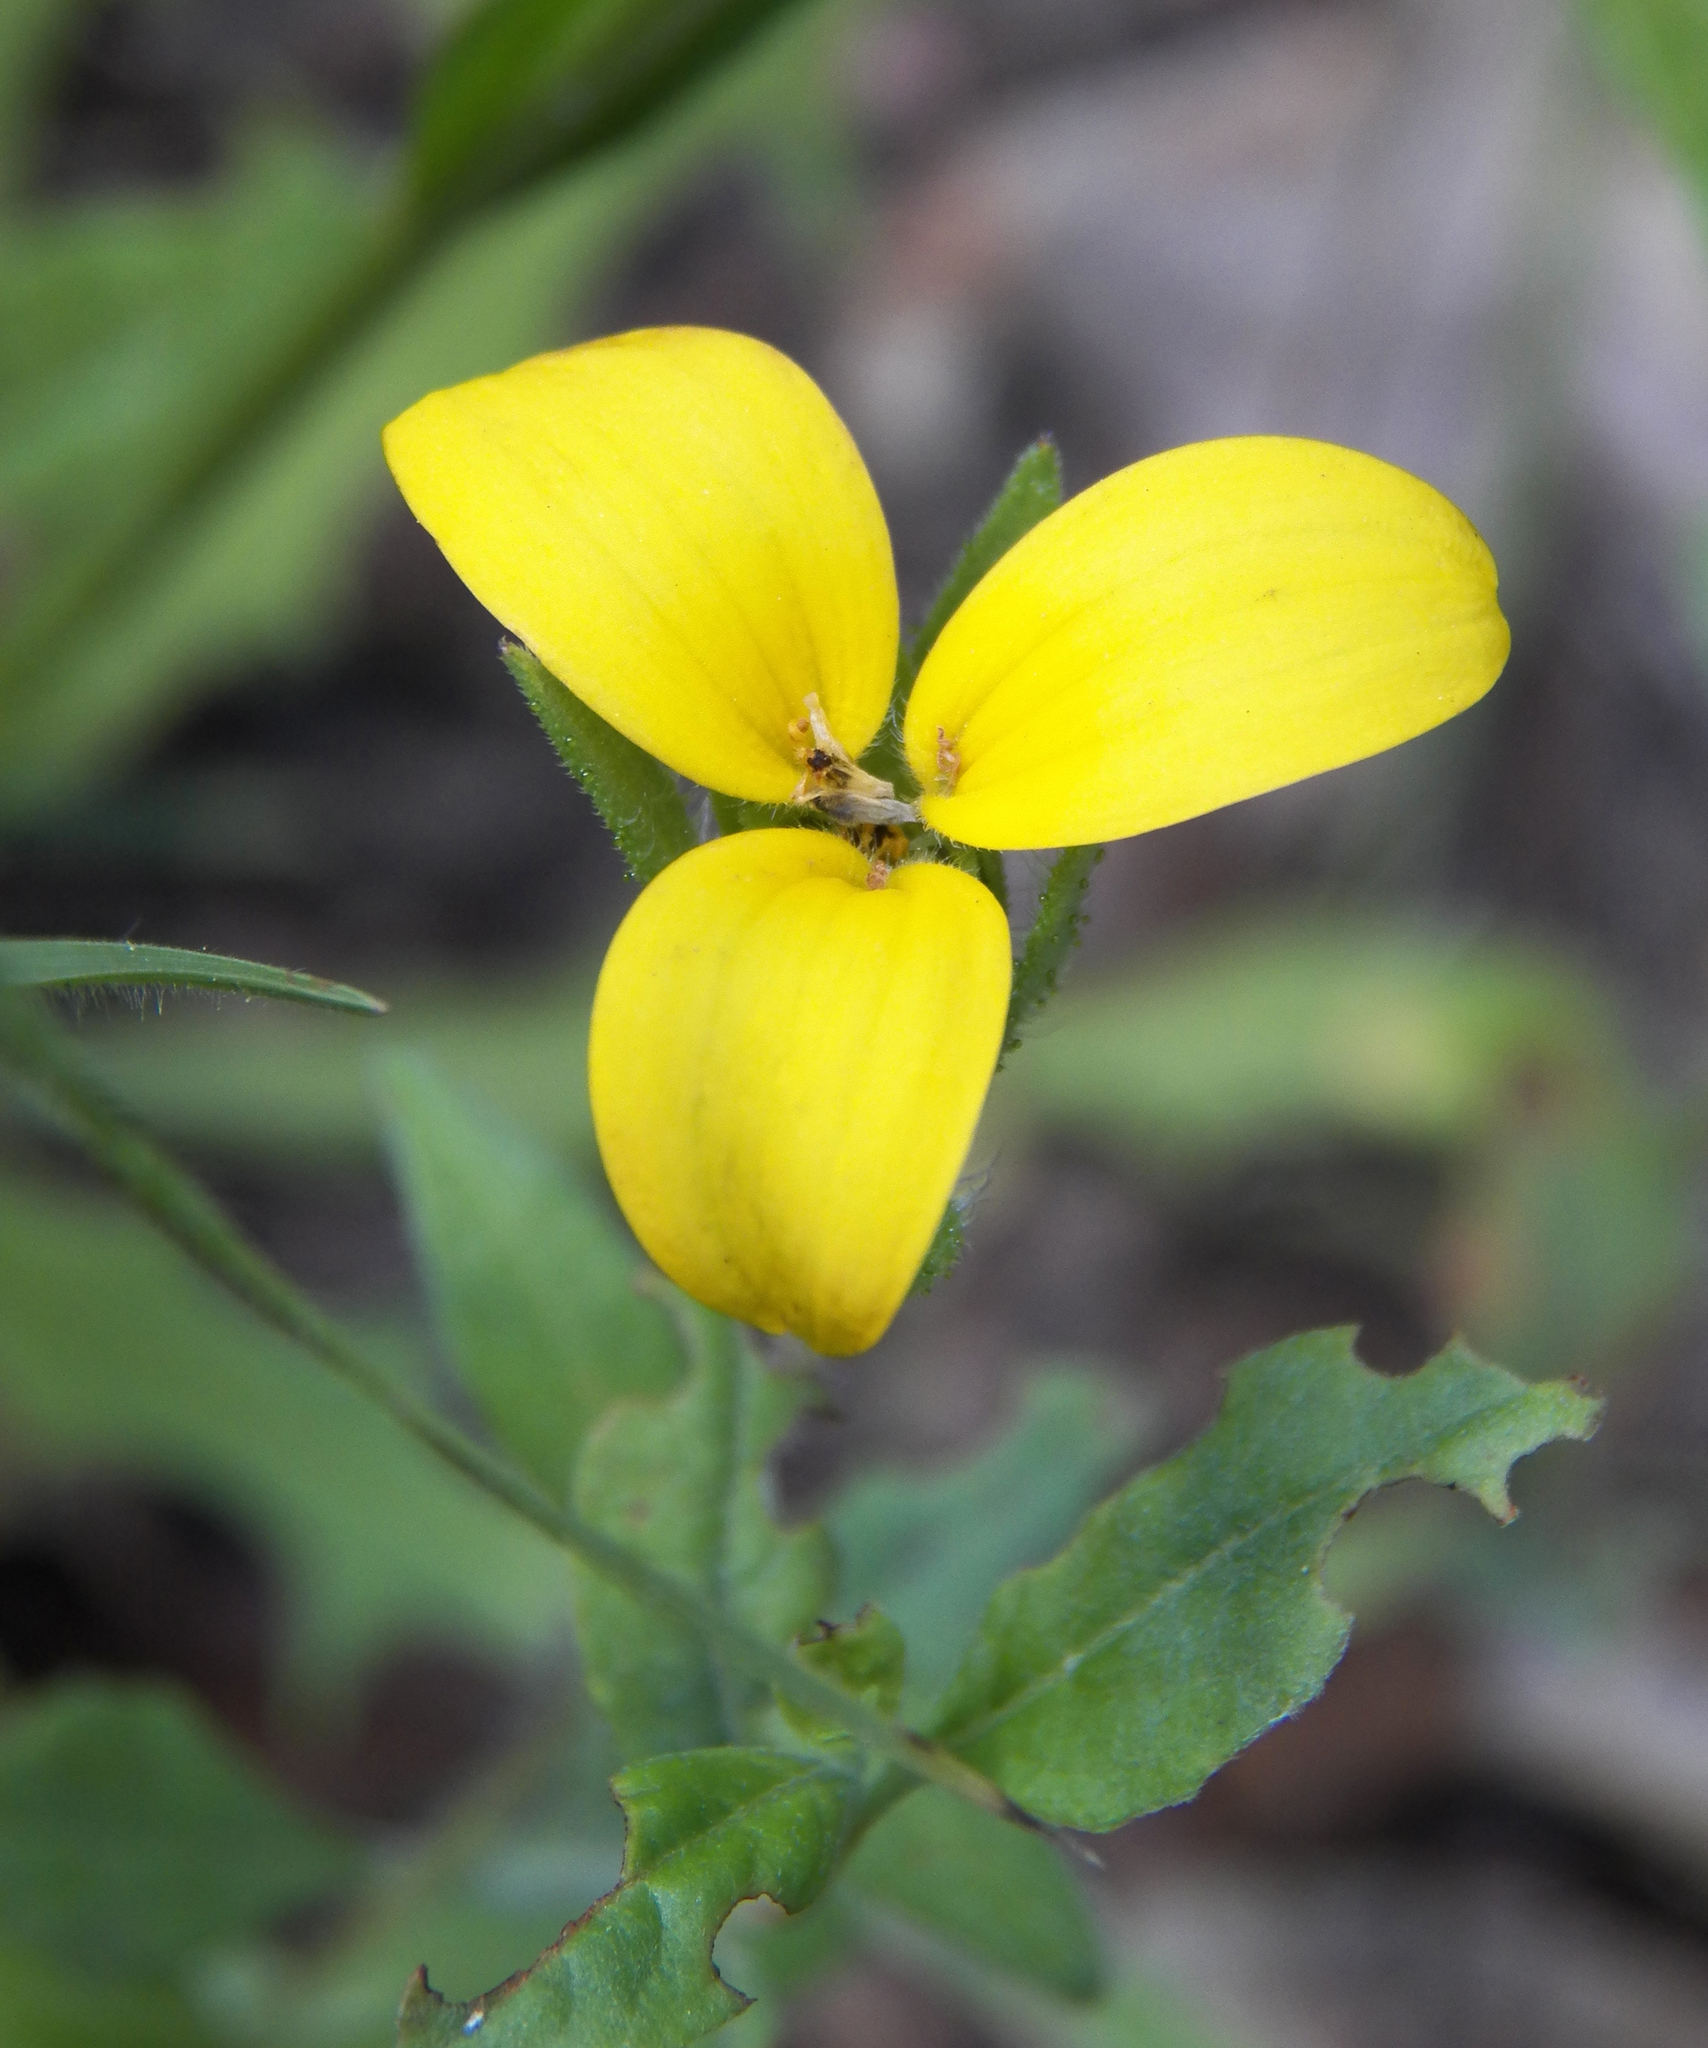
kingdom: Plantae
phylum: Tracheophyta
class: Magnoliopsida
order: Asterales
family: Asteraceae
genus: Lindheimera
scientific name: Lindheimera texana
